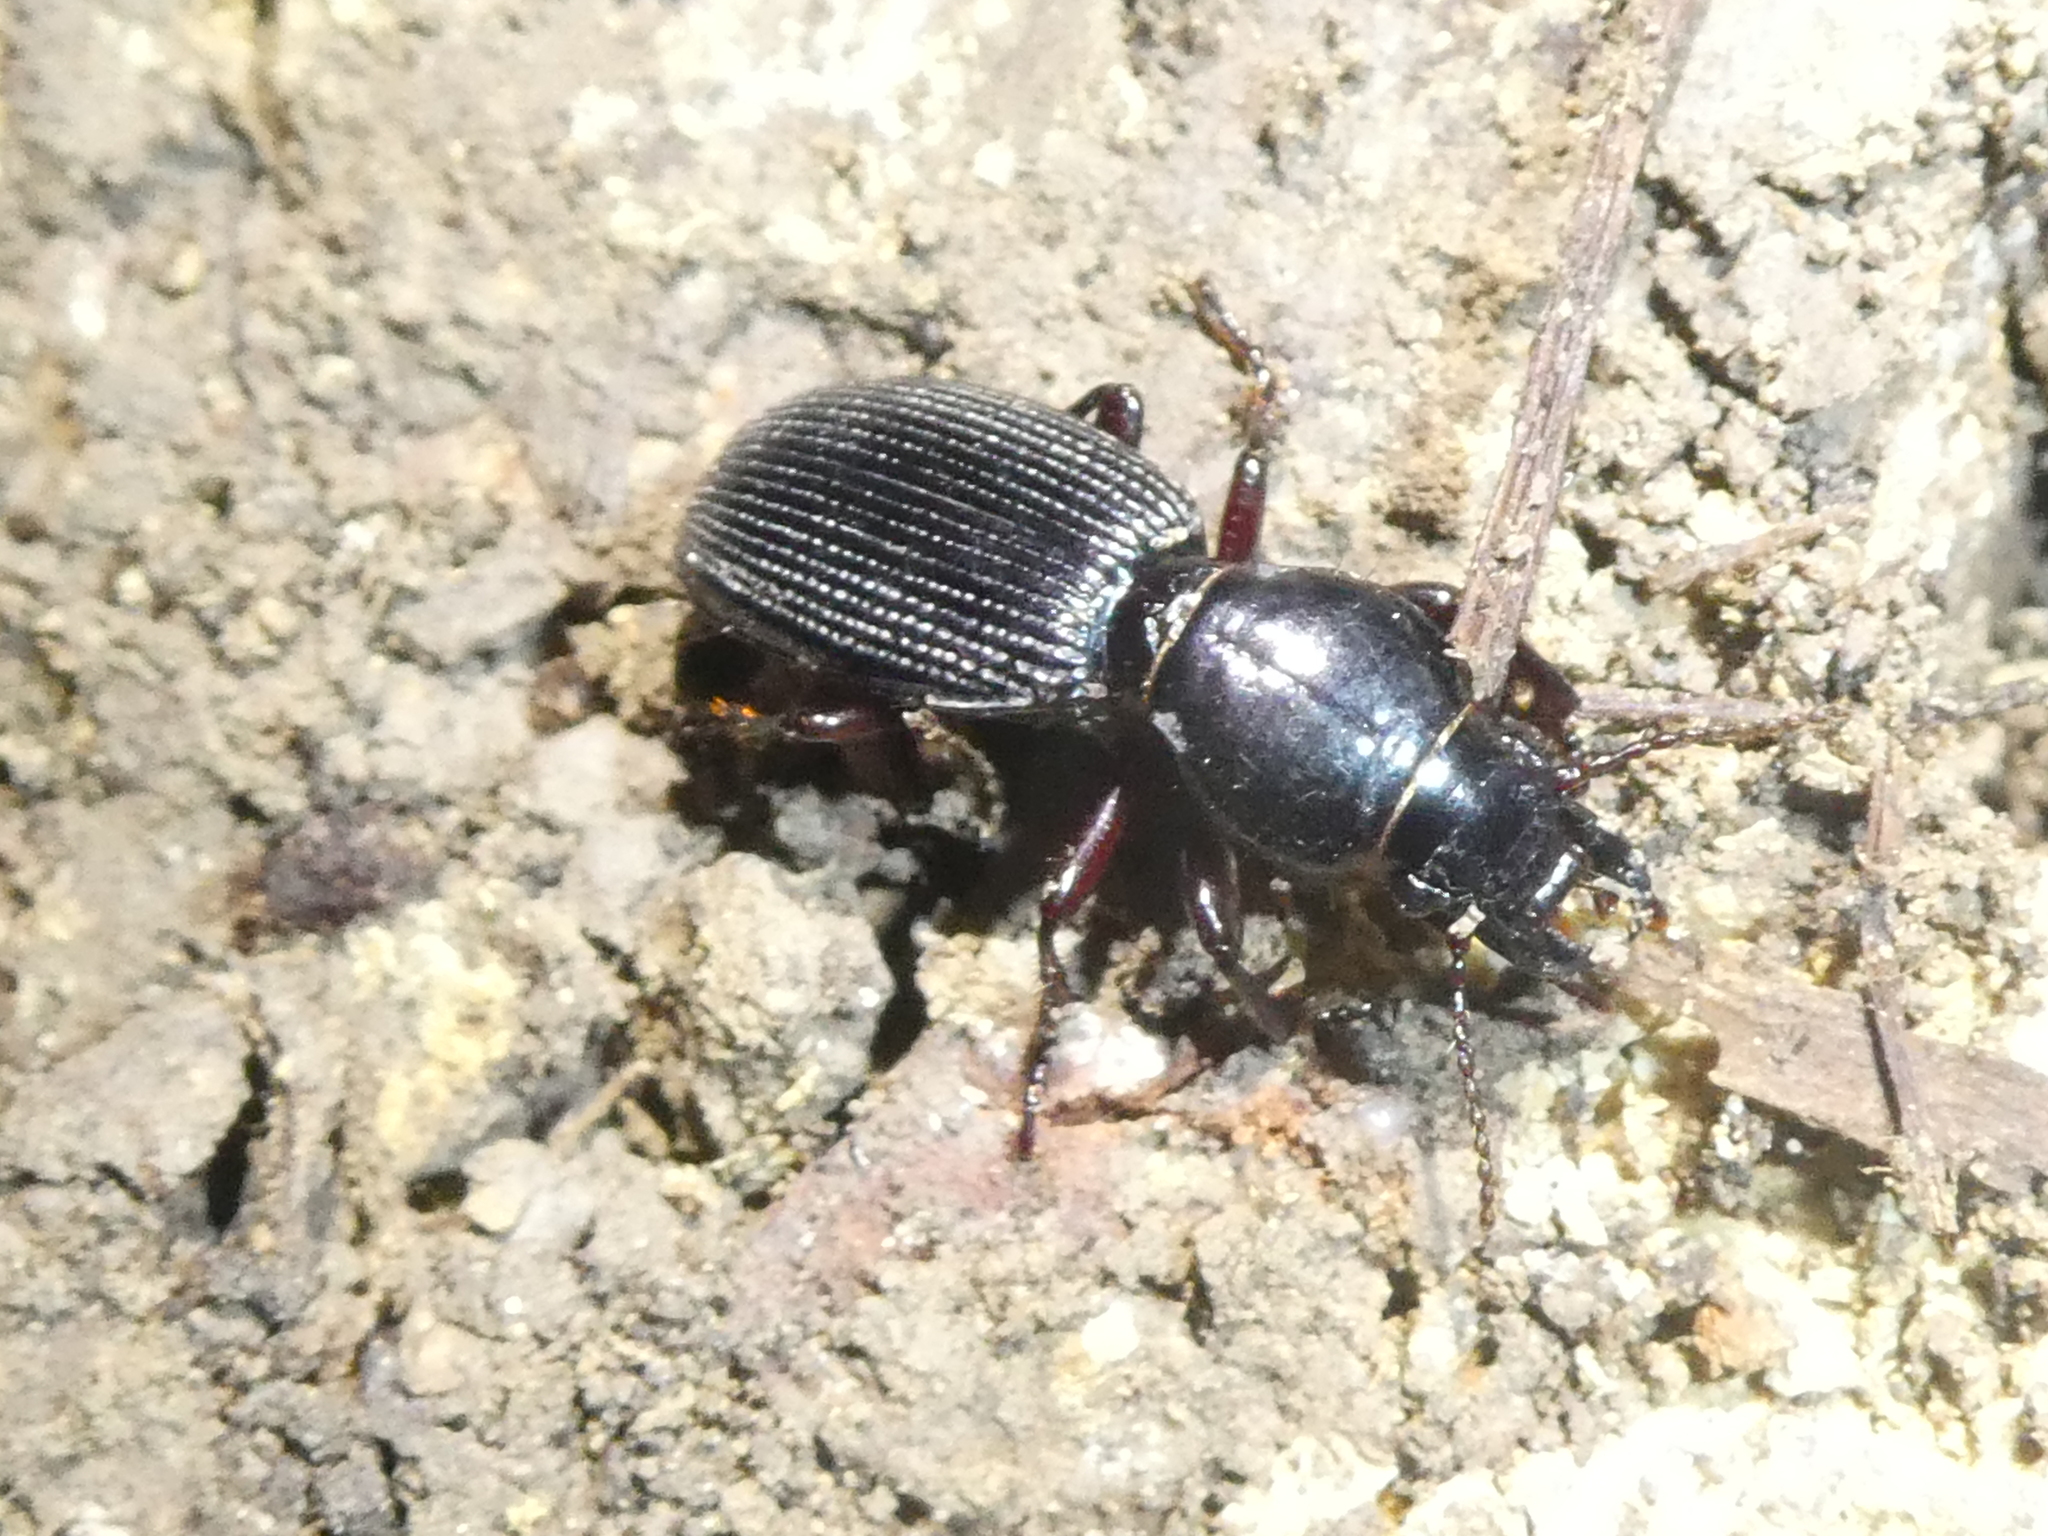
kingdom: Animalia
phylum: Arthropoda
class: Insecta
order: Coleoptera
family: Carabidae
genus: Mecodema
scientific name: Mecodema oblongum
